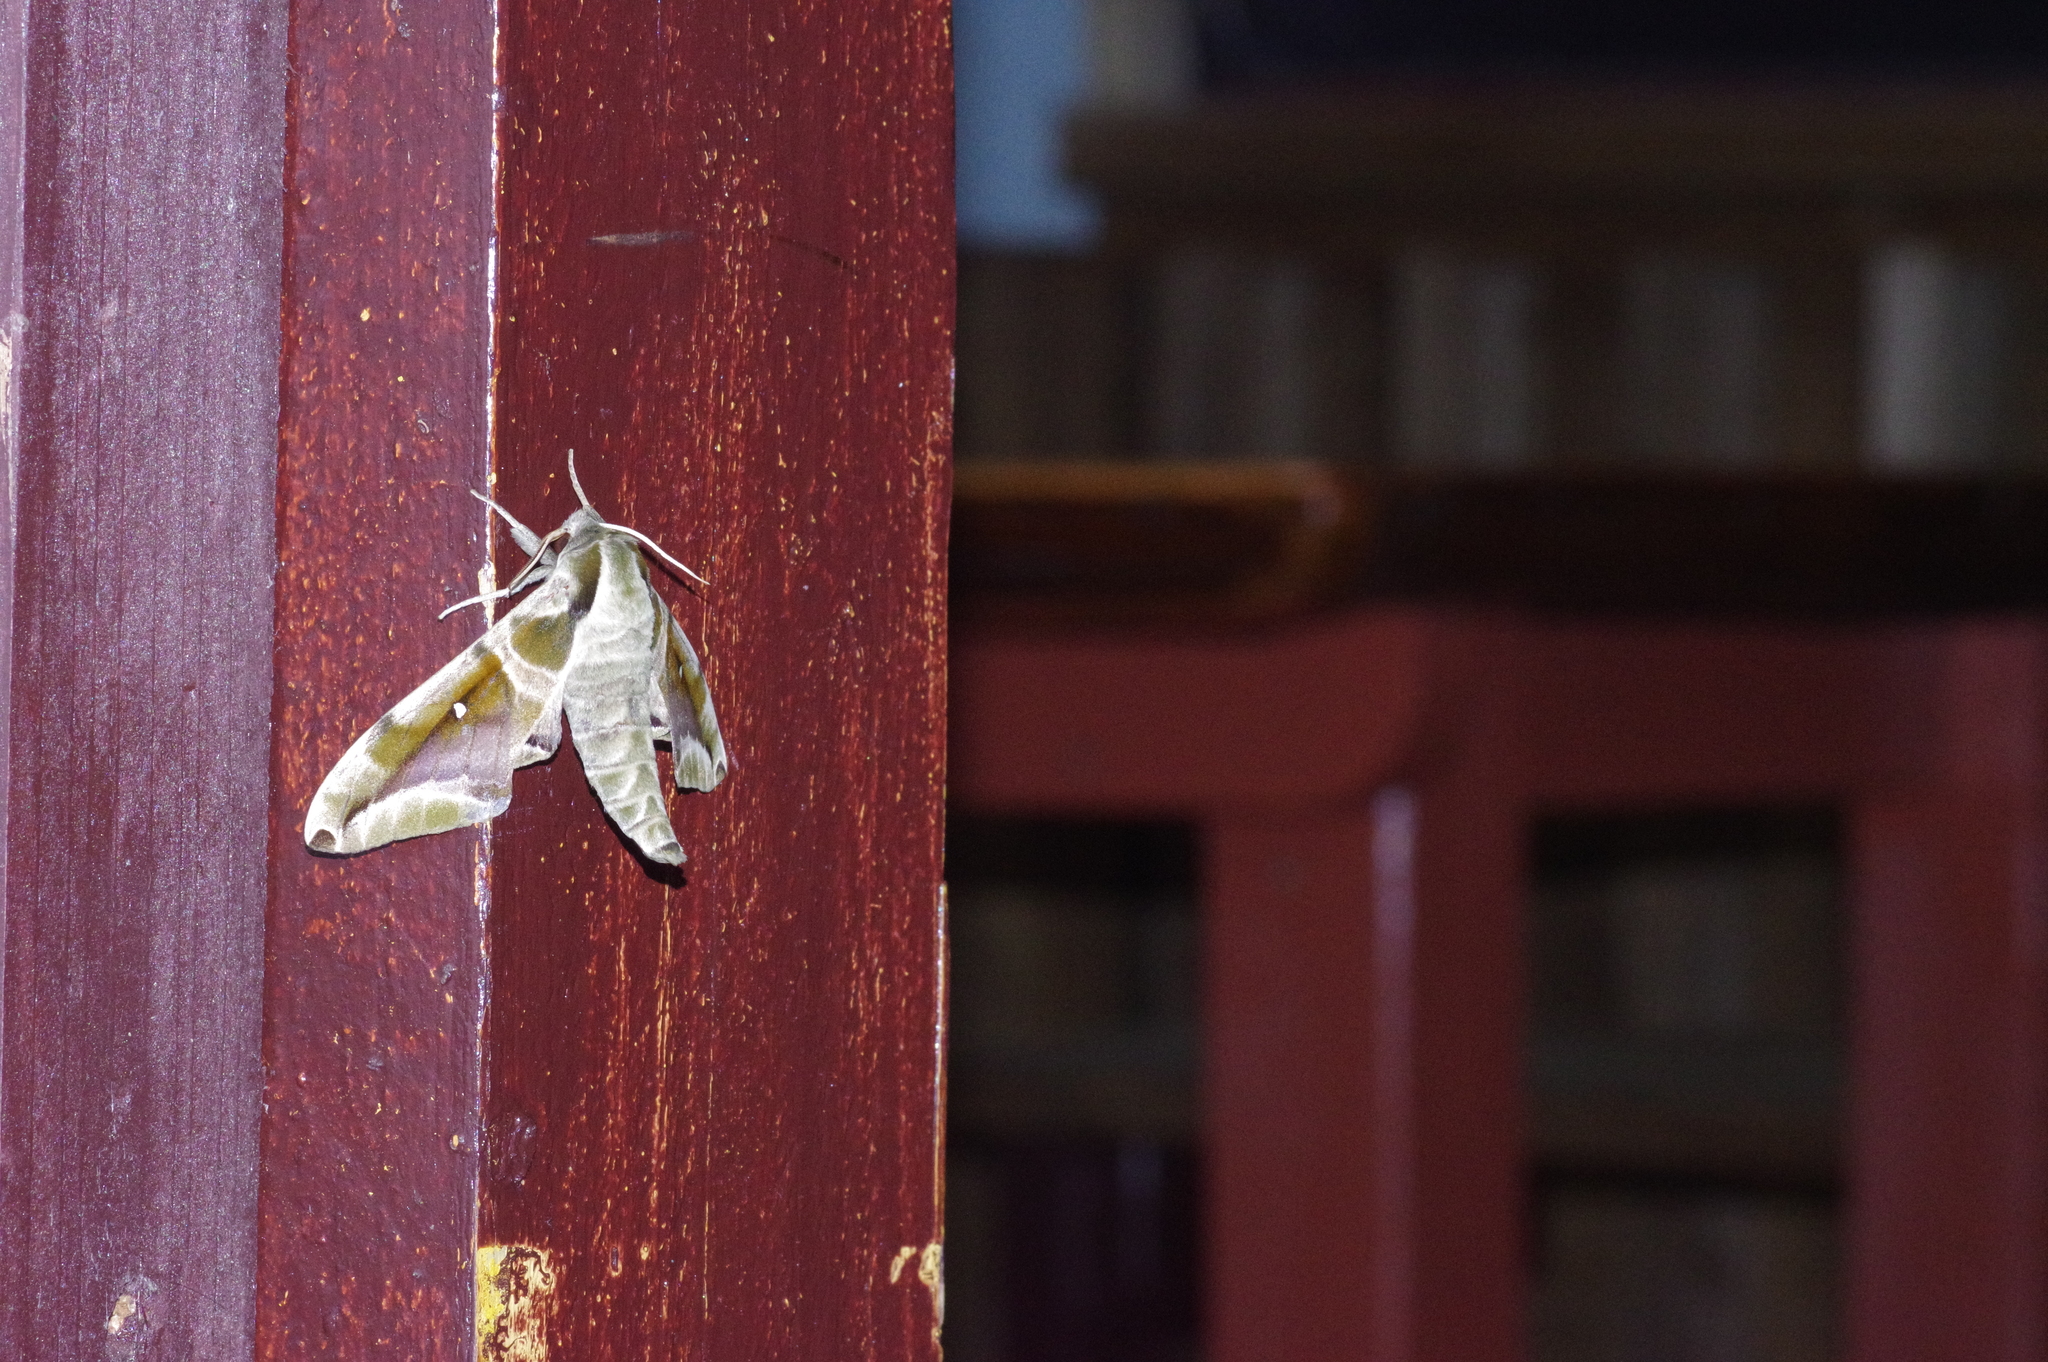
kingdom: Animalia
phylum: Arthropoda
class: Insecta
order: Lepidoptera
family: Sphingidae
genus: Parum
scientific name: Parum colligata
